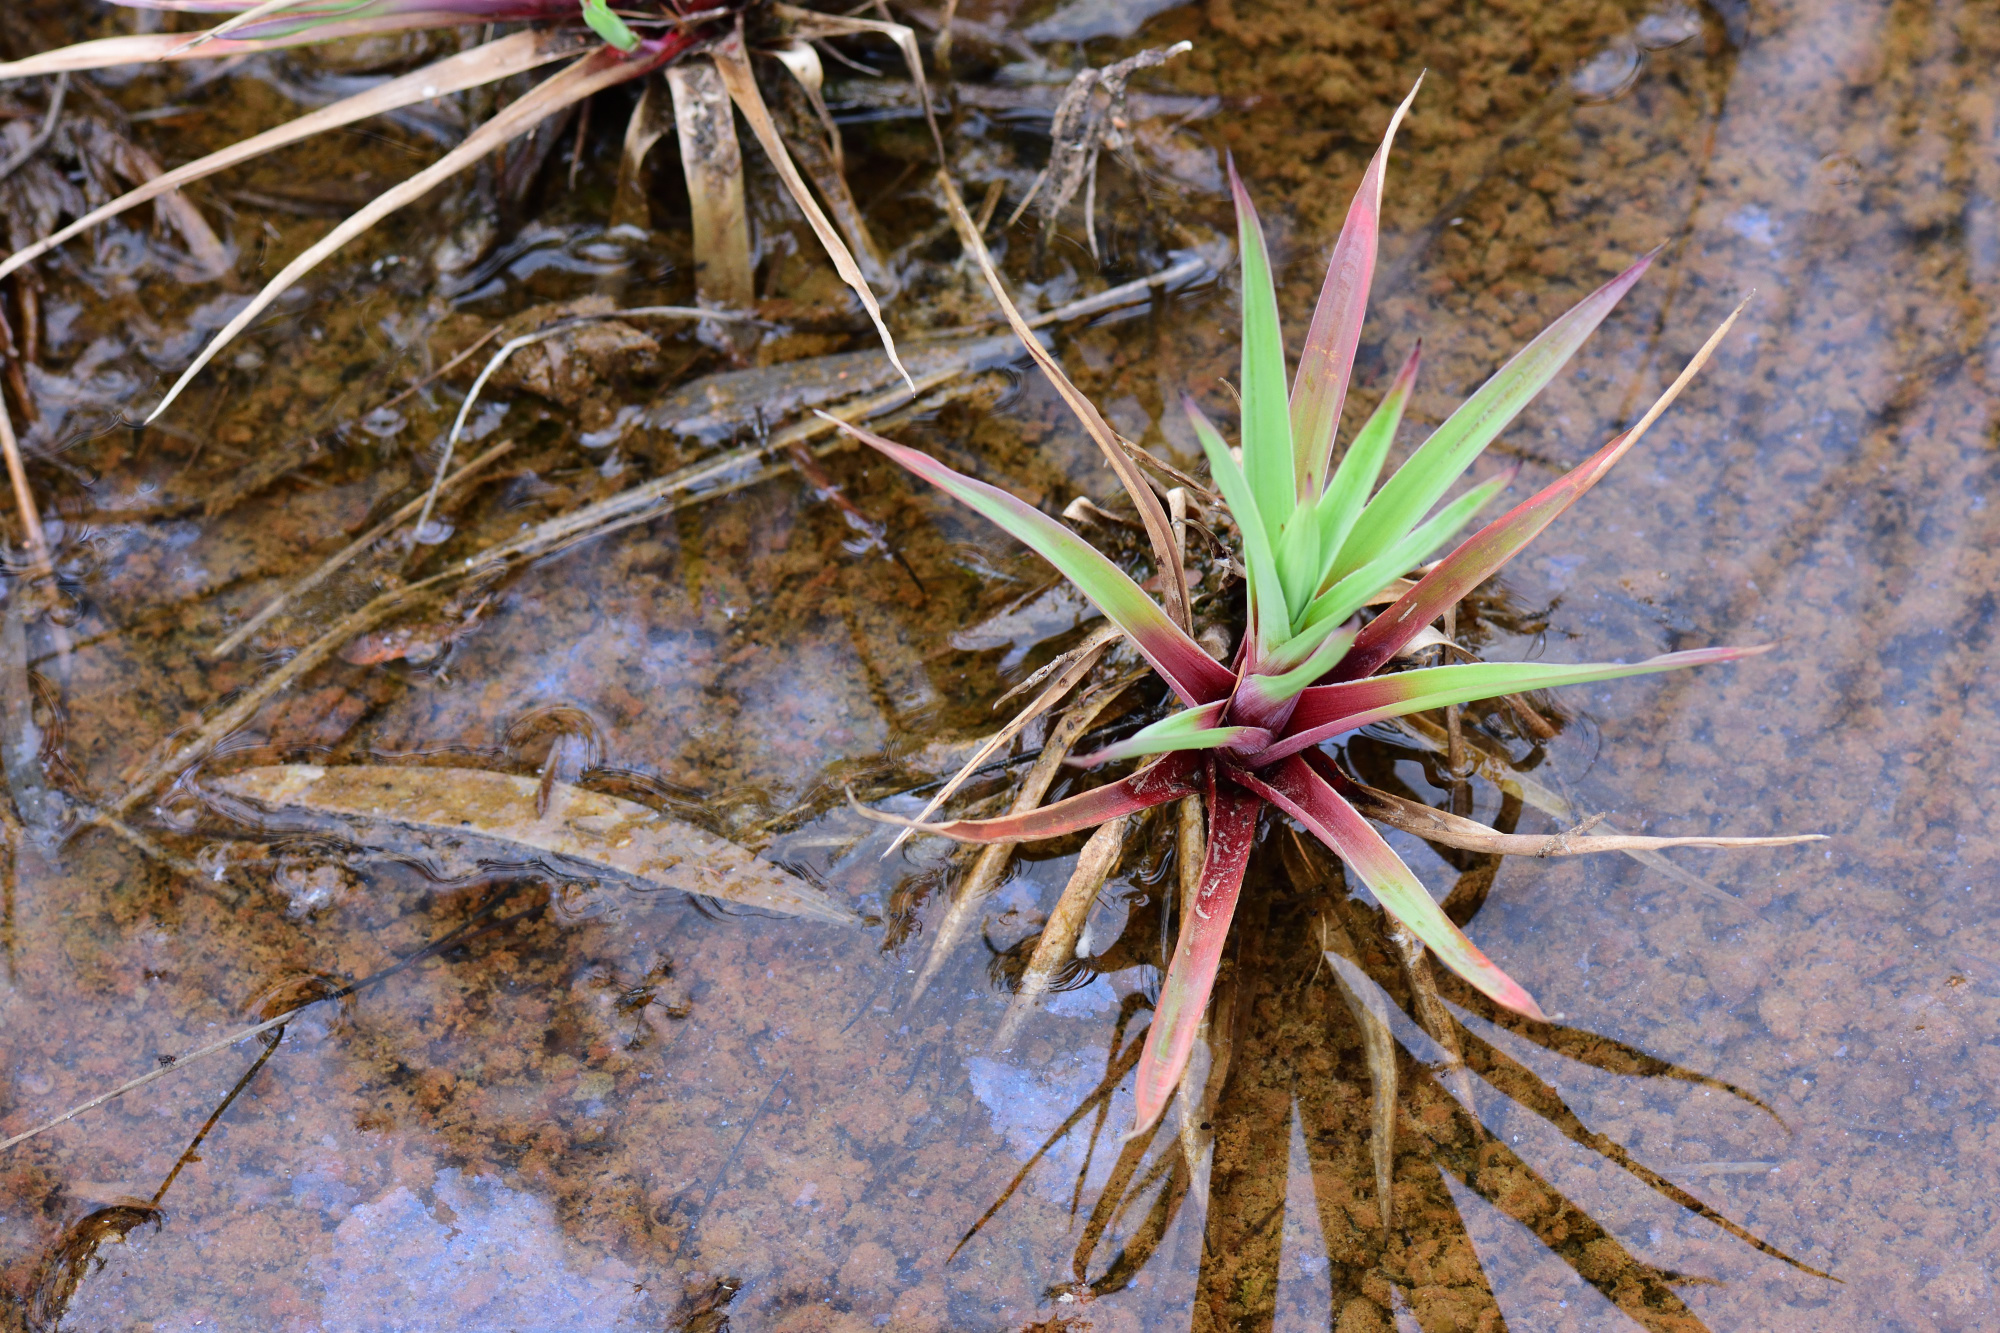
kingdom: Plantae
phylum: Tracheophyta
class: Liliopsida
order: Poales
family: Juncaceae
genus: Juncus
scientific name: Juncus lomatophyllus
